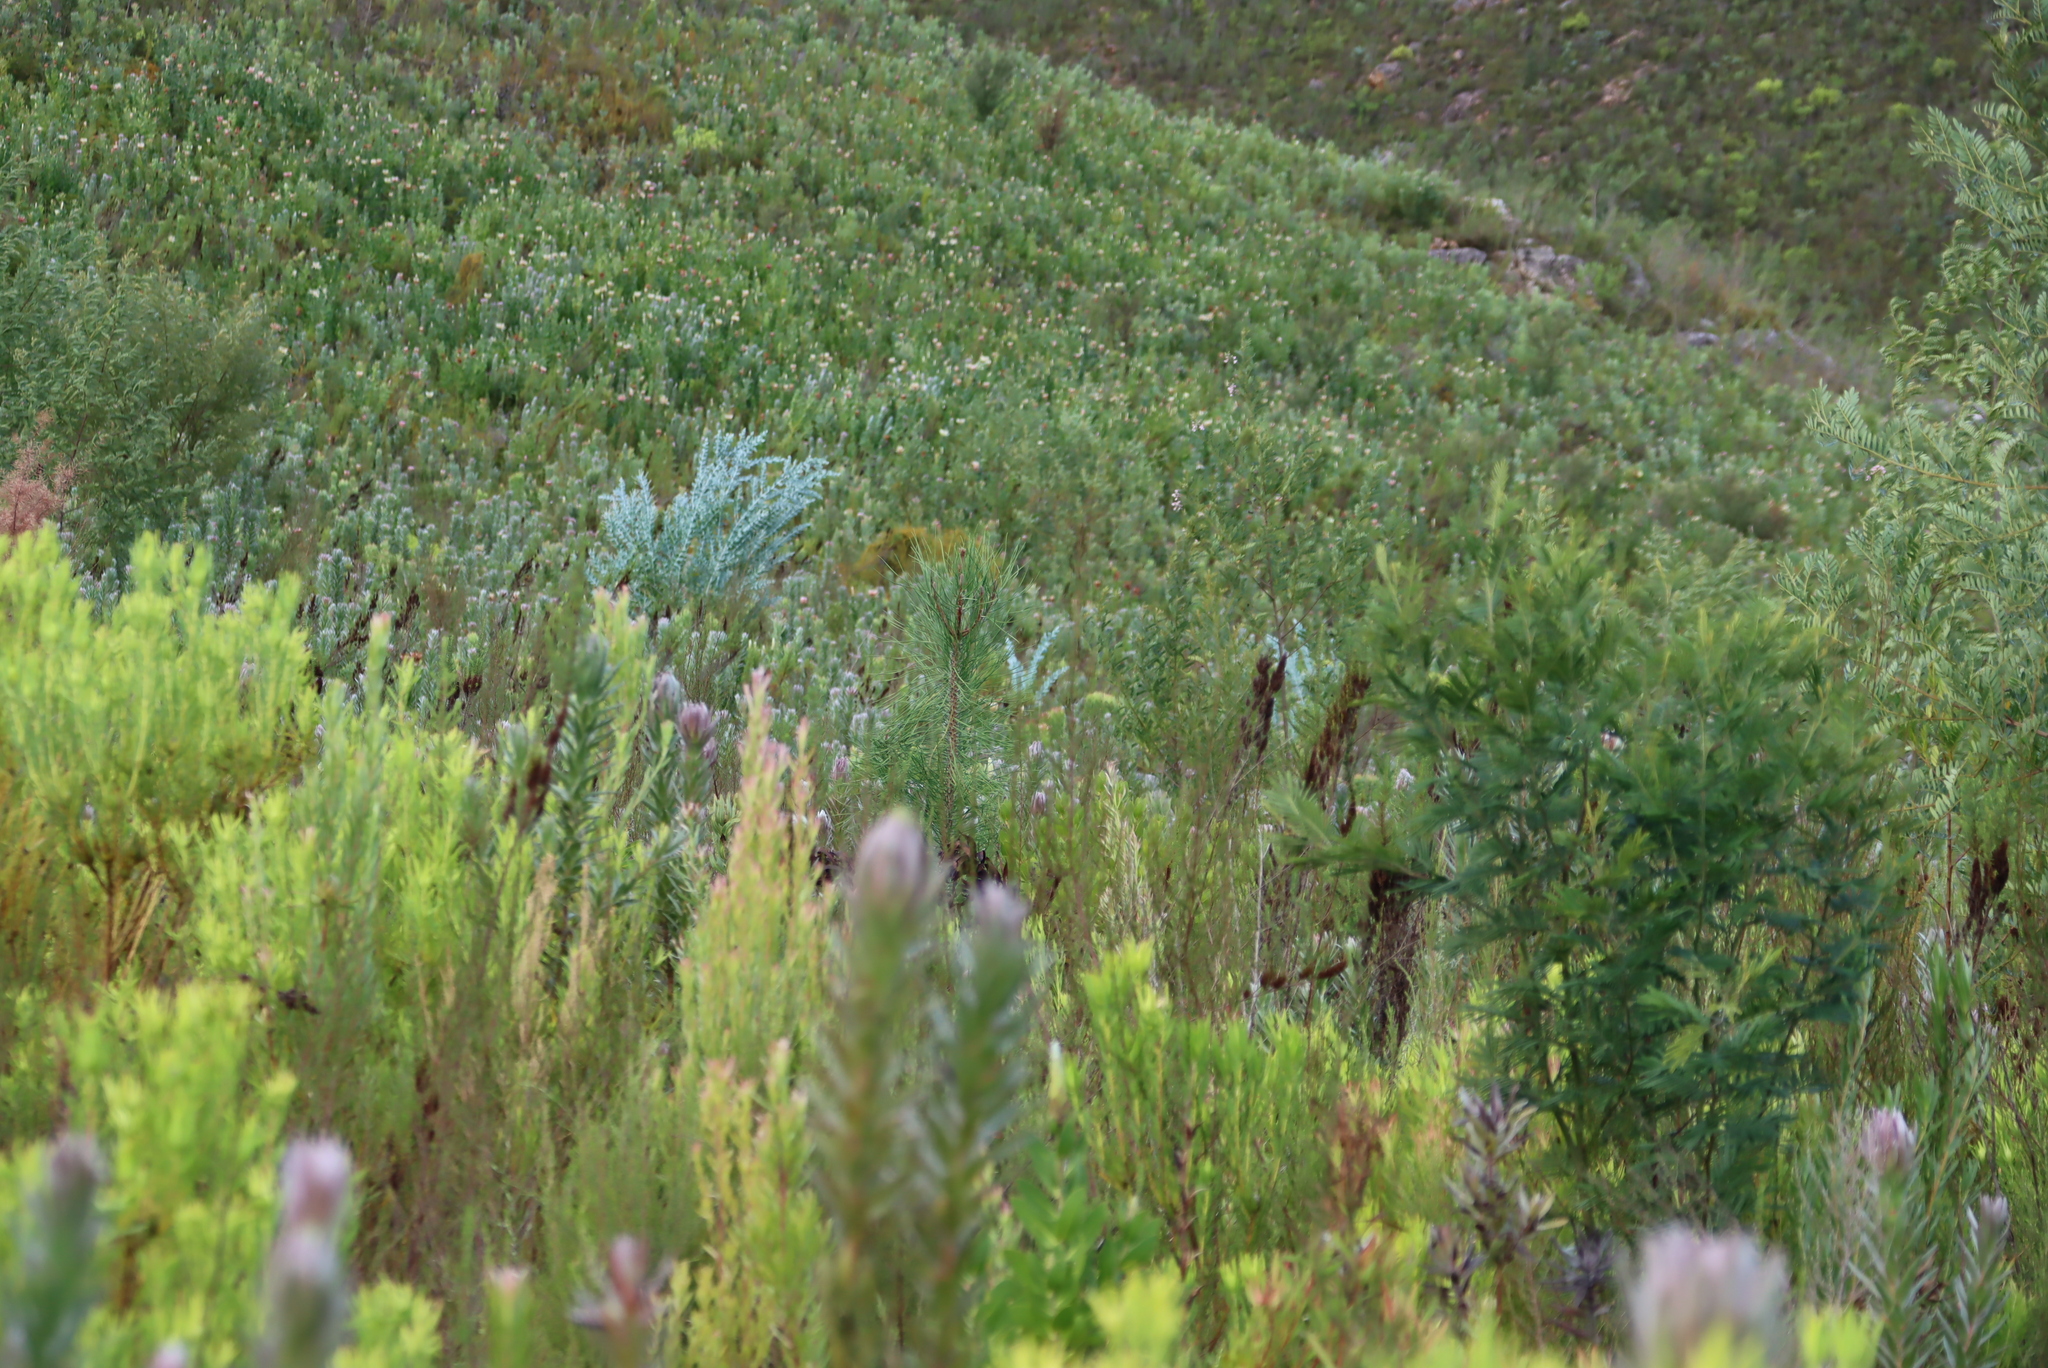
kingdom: Plantae
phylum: Tracheophyta
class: Magnoliopsida
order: Proteales
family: Proteaceae
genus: Hakea
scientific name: Hakea sericea
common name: Needle bush
